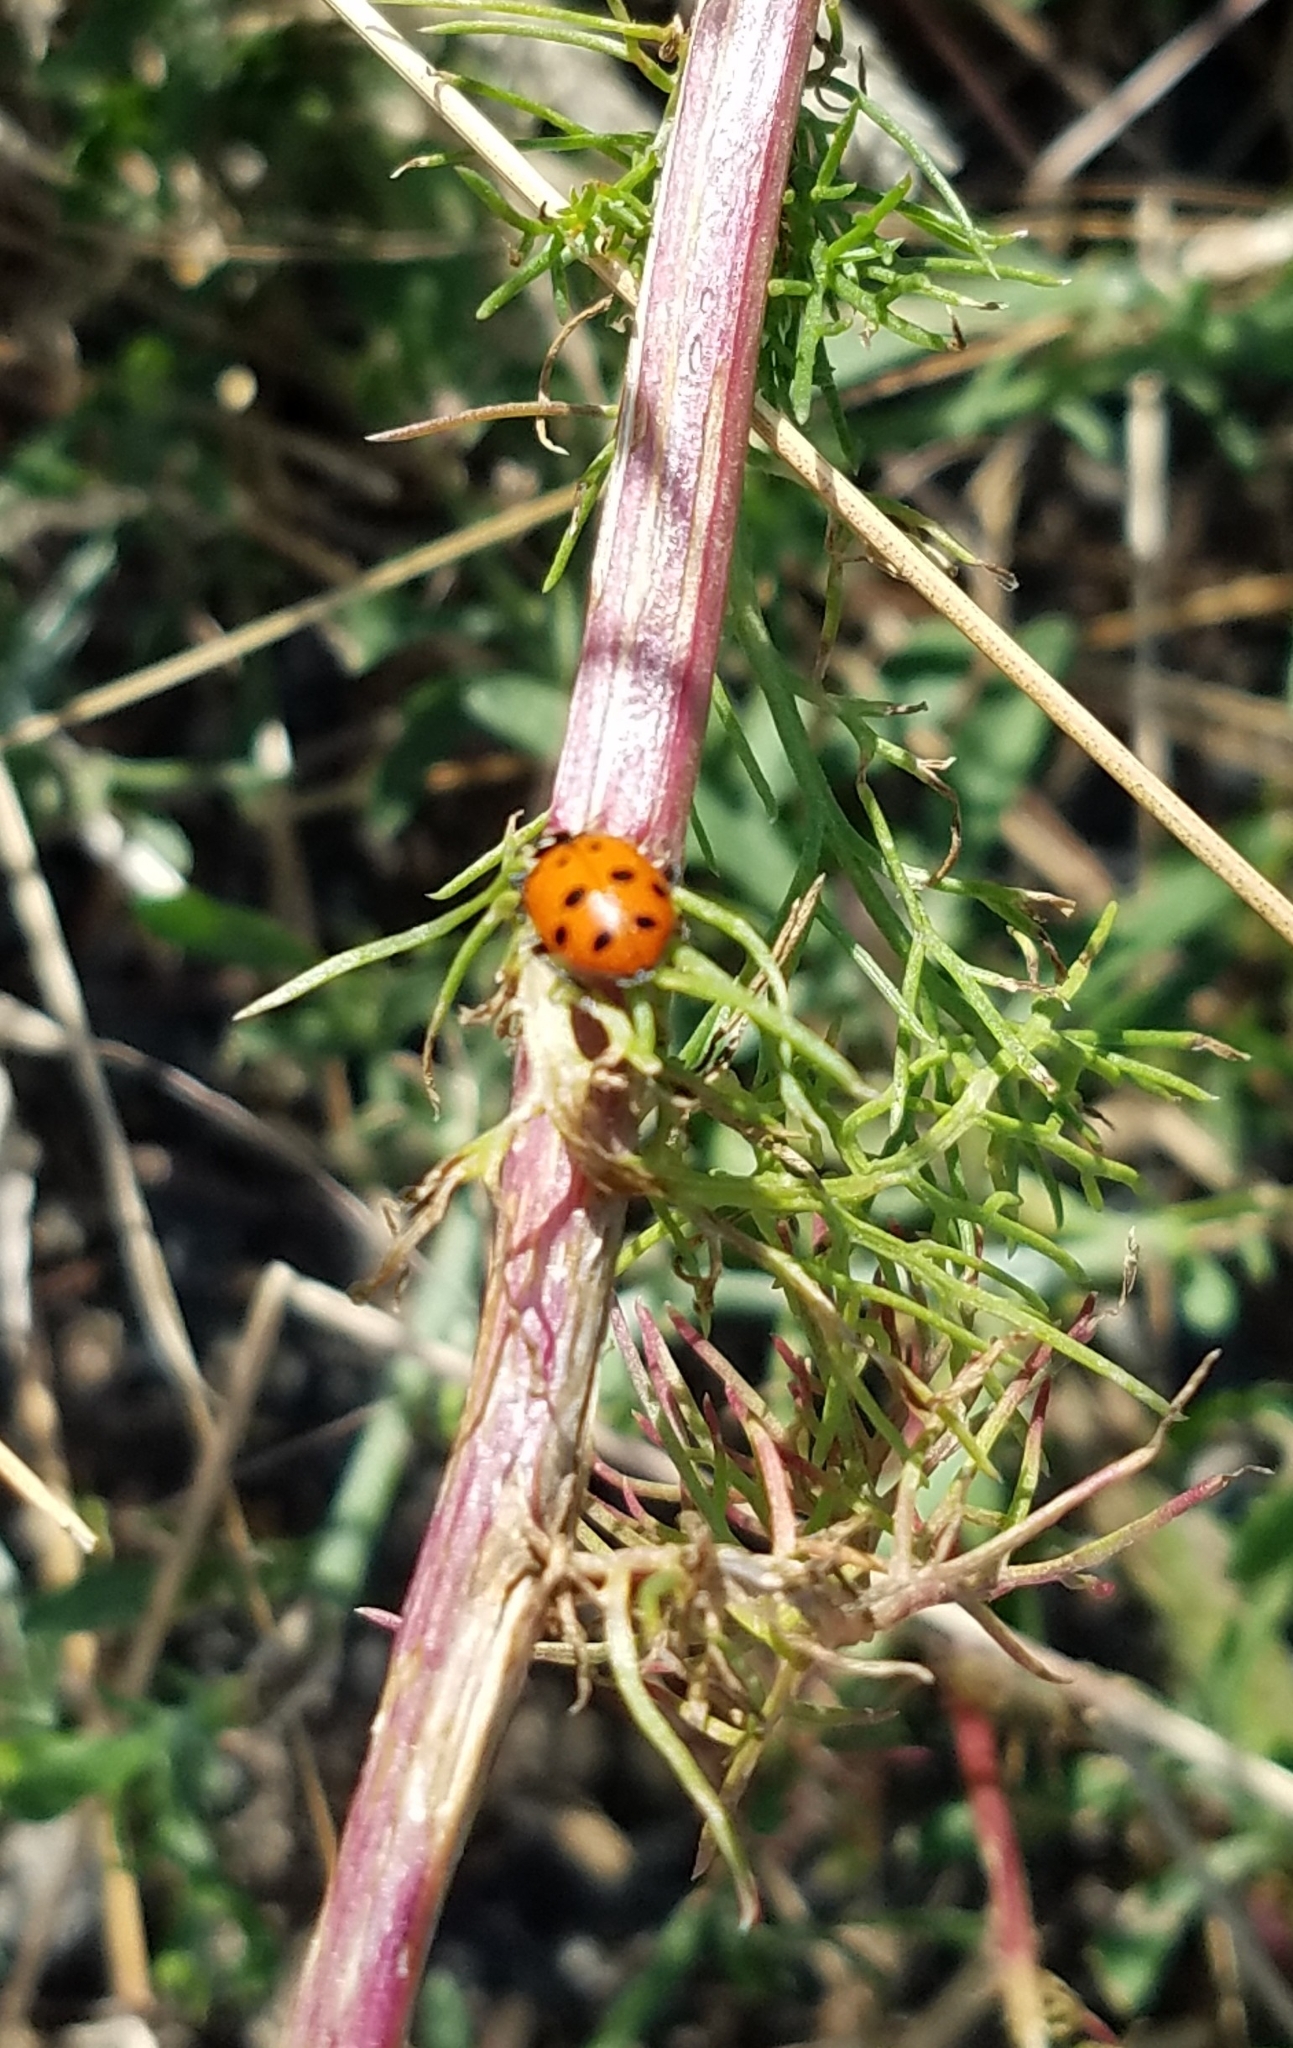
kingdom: Animalia
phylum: Arthropoda
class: Insecta
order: Coleoptera
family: Coccinellidae
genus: Hippodamia
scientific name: Hippodamia convergens
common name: Convergent lady beetle
